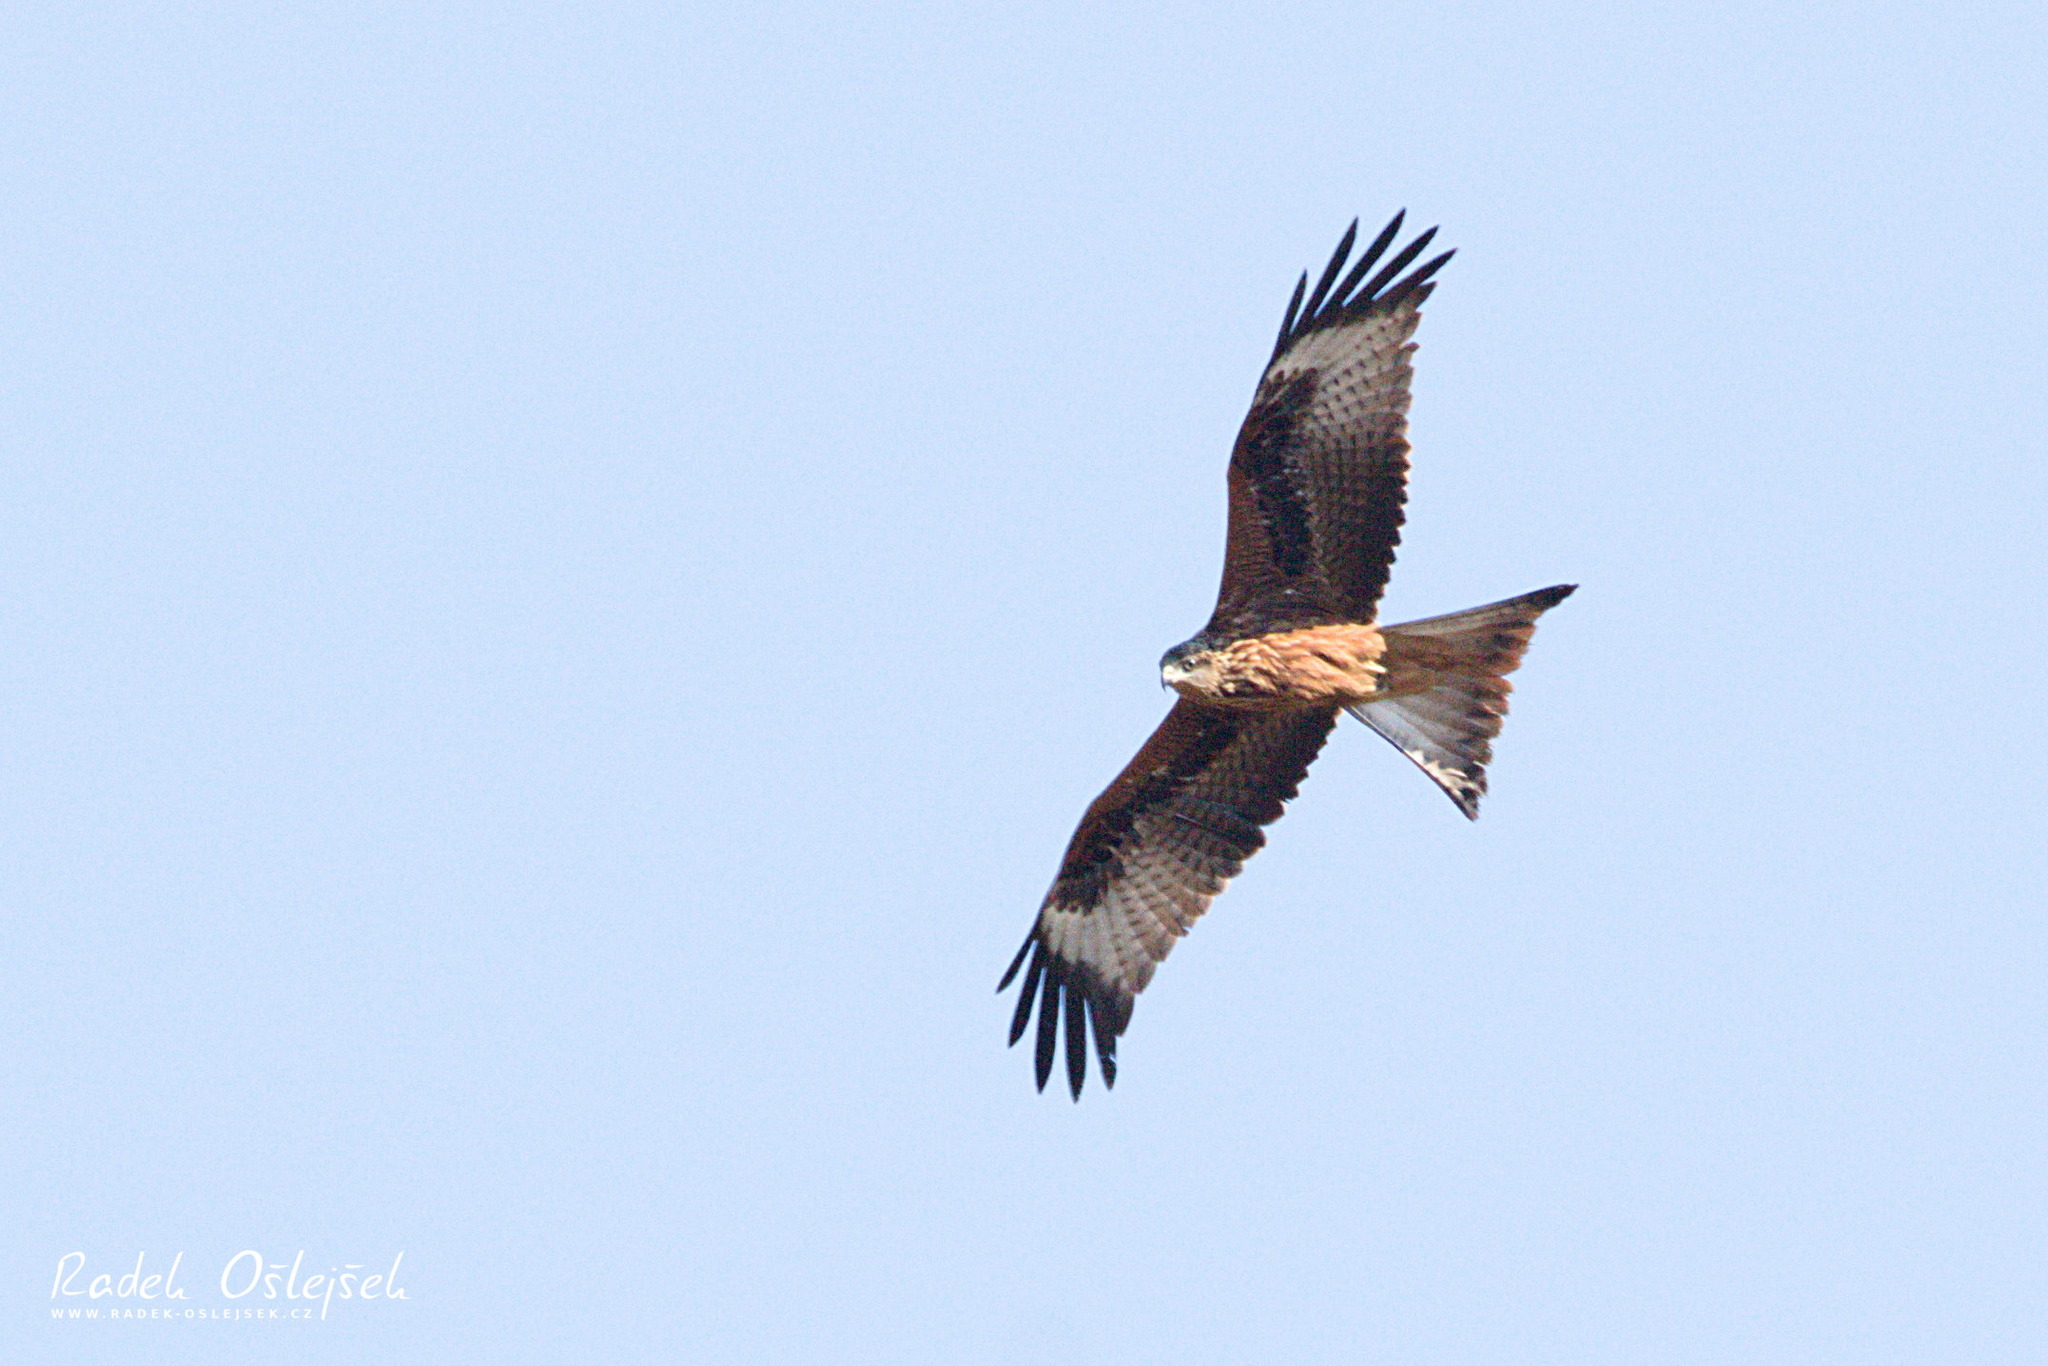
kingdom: Animalia
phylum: Chordata
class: Aves
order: Accipitriformes
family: Accipitridae
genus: Milvus
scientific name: Milvus milvus
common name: Red kite
